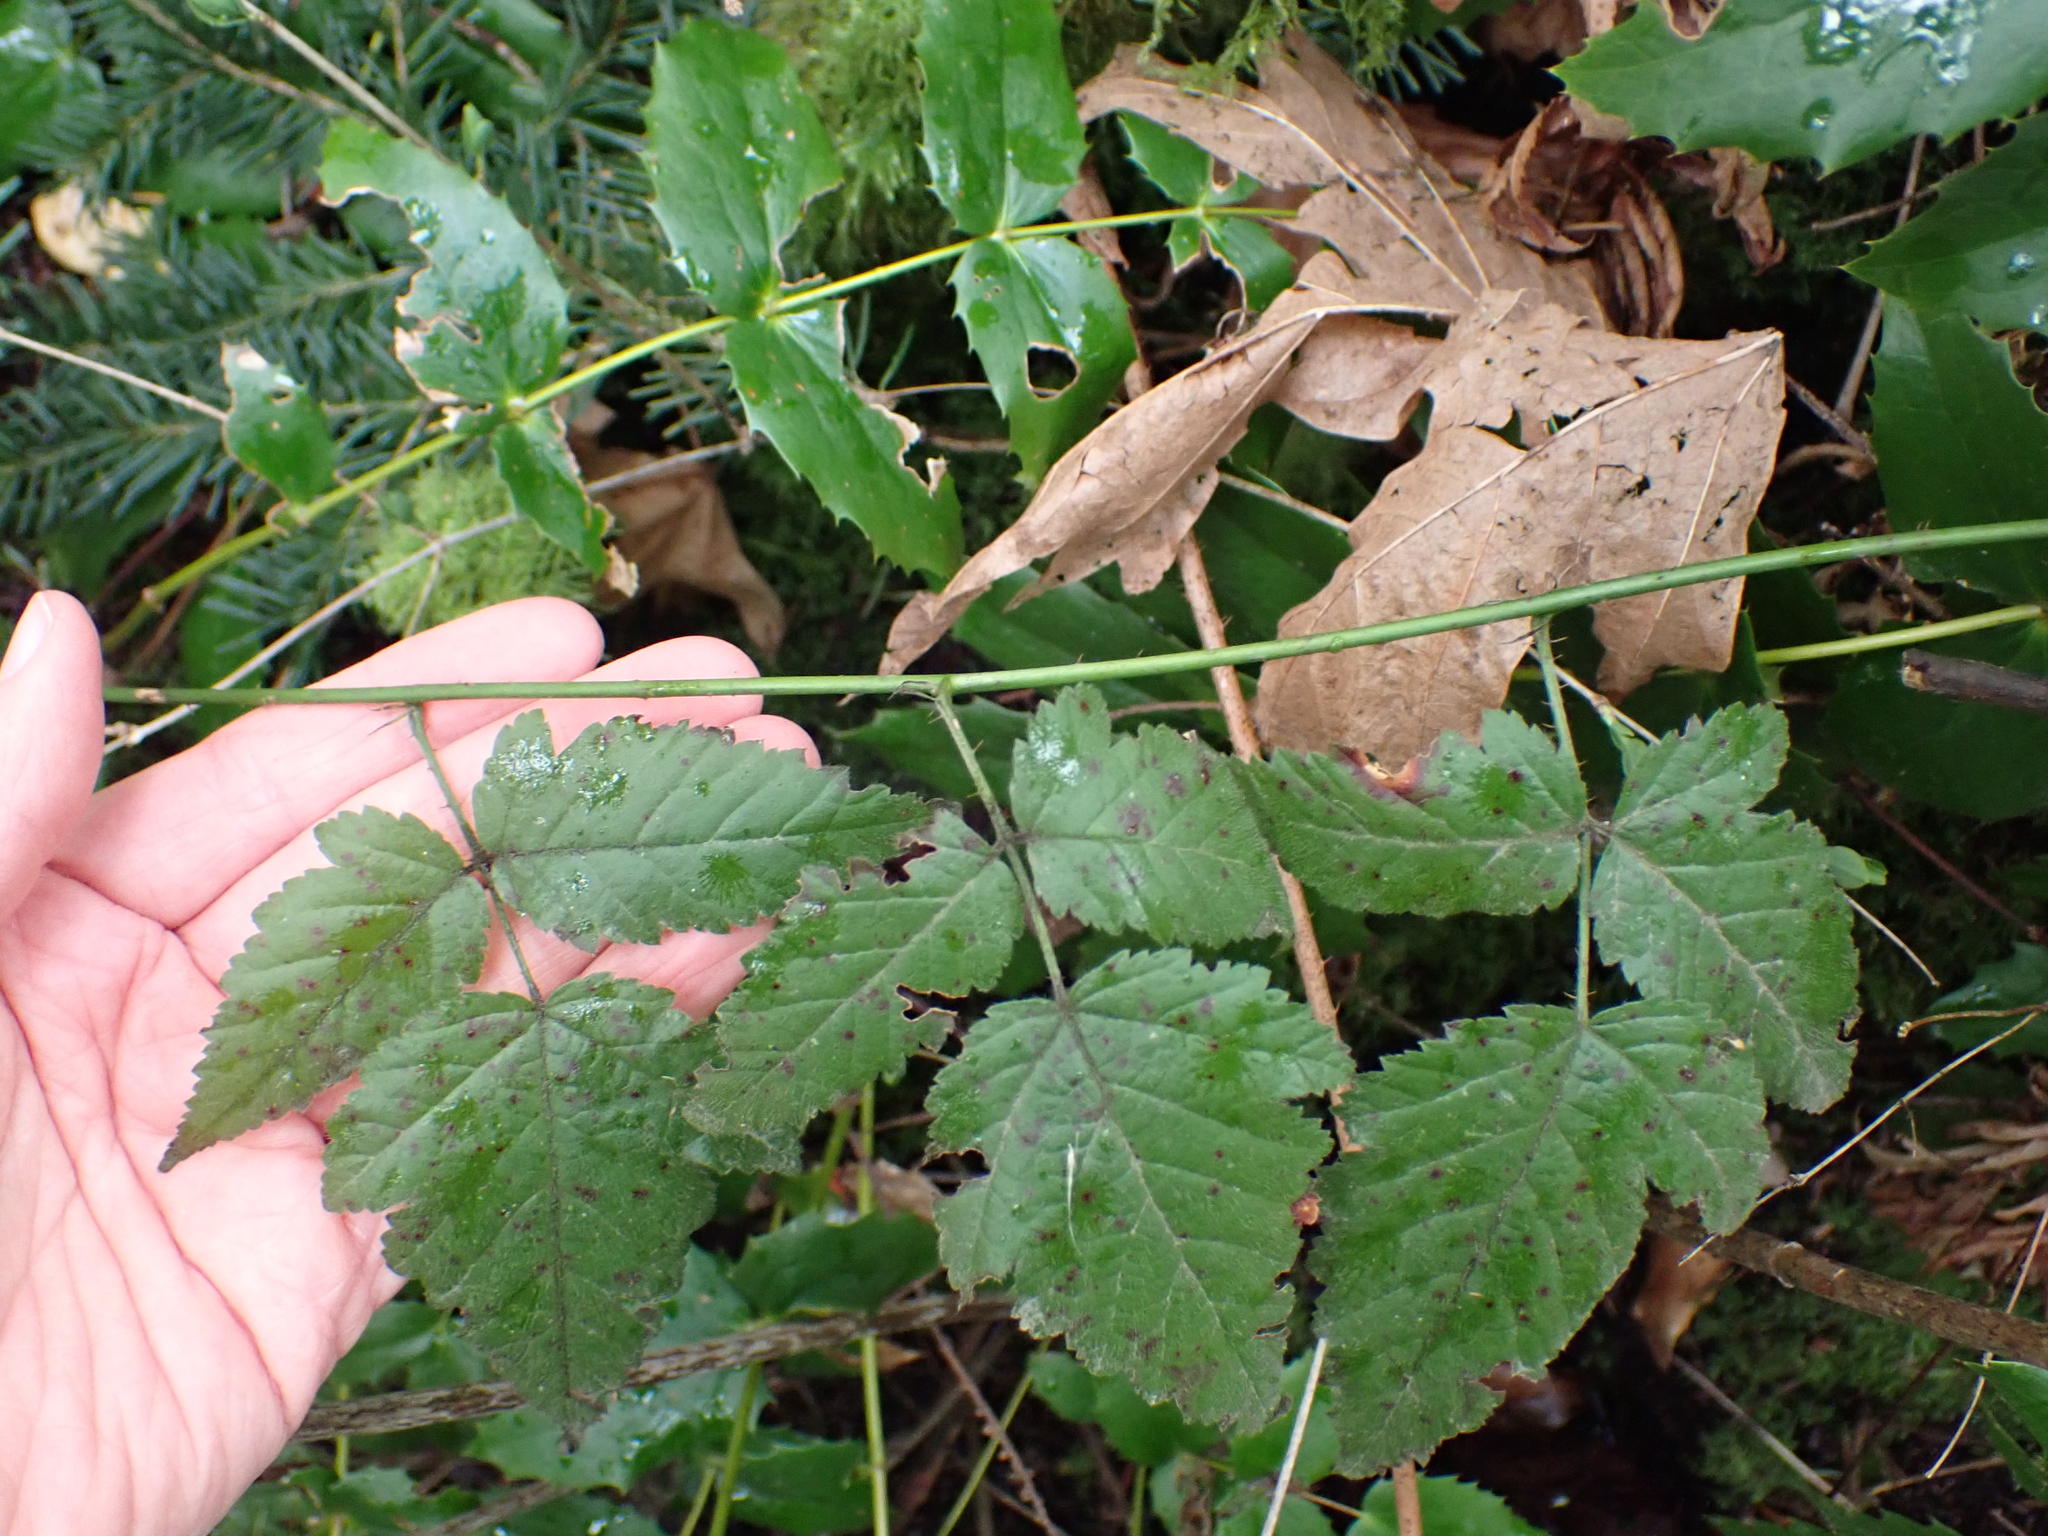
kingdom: Plantae
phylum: Tracheophyta
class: Magnoliopsida
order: Rosales
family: Rosaceae
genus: Rubus
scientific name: Rubus ursinus
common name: Pacific blackberry
